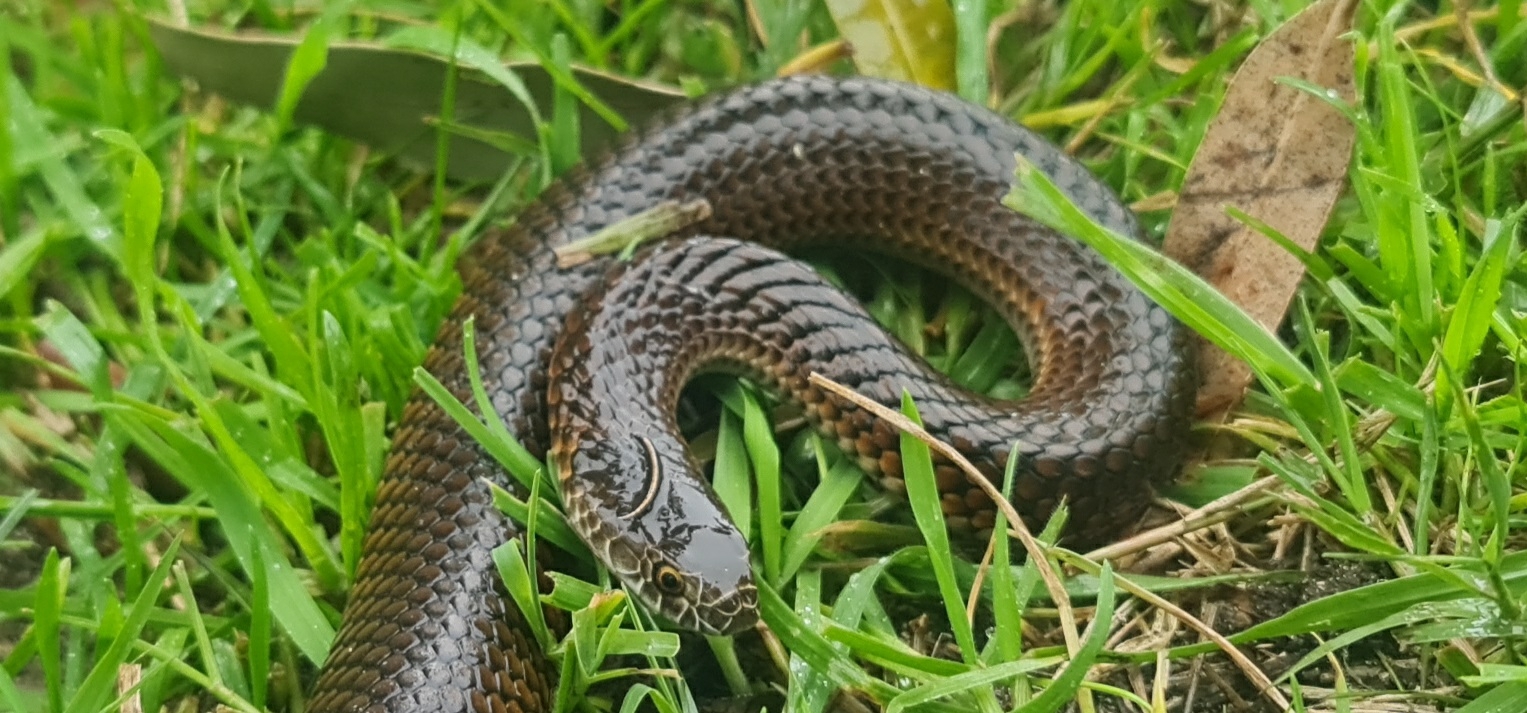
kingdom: Animalia
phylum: Chordata
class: Squamata
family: Elapidae
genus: Austrelaps
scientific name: Austrelaps superbus
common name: Copperhead snake
